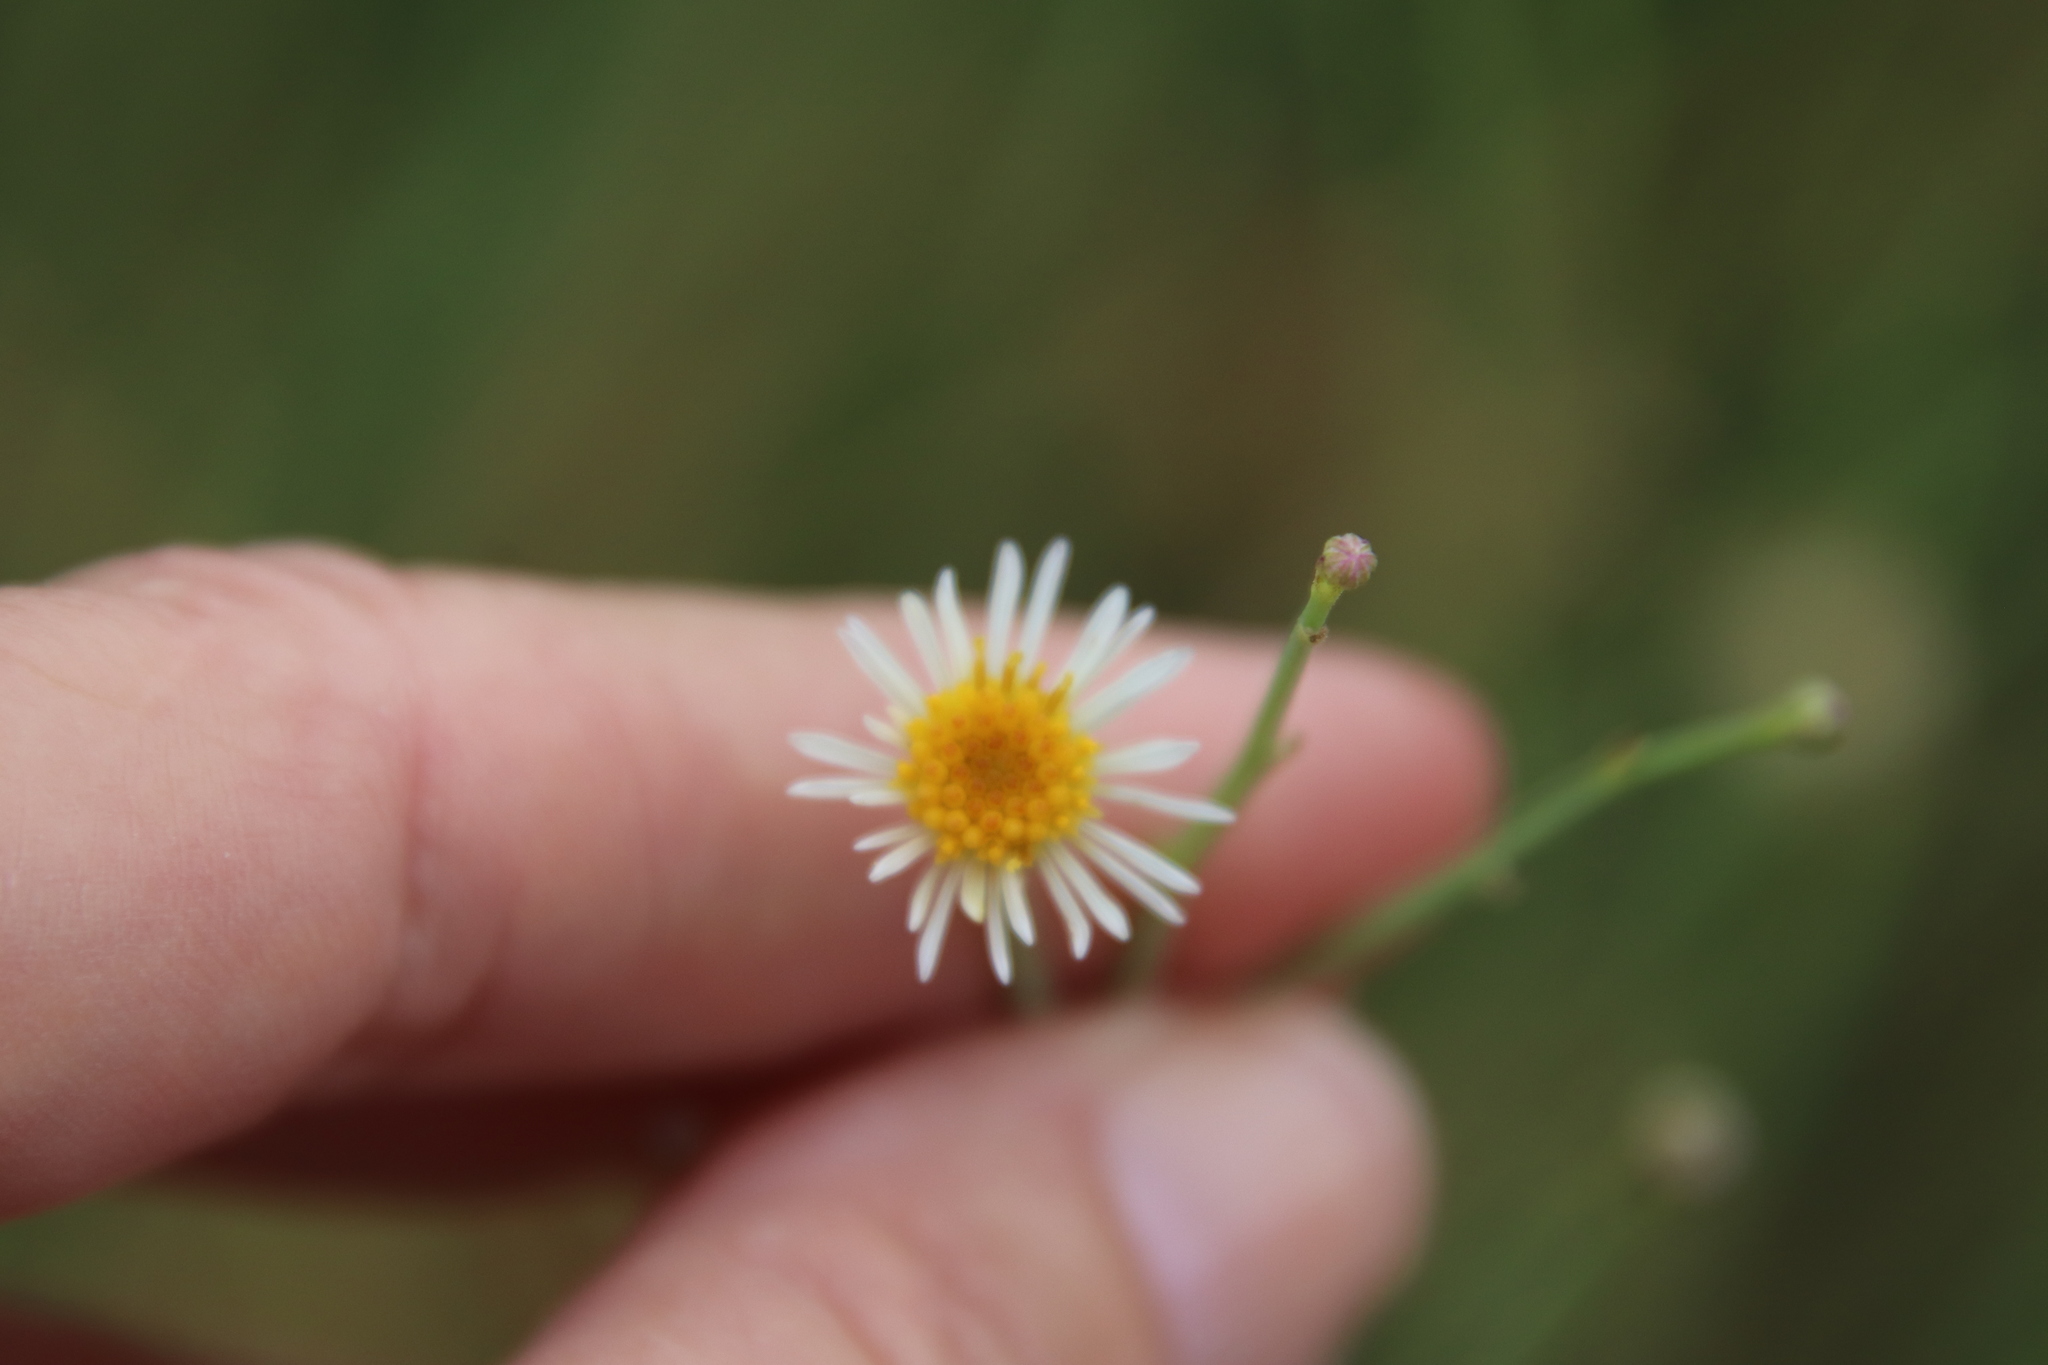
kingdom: Plantae
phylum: Tracheophyta
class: Magnoliopsida
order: Asterales
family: Asteraceae
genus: Chloracantha
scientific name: Chloracantha spinosa
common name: Mexican devilweed
